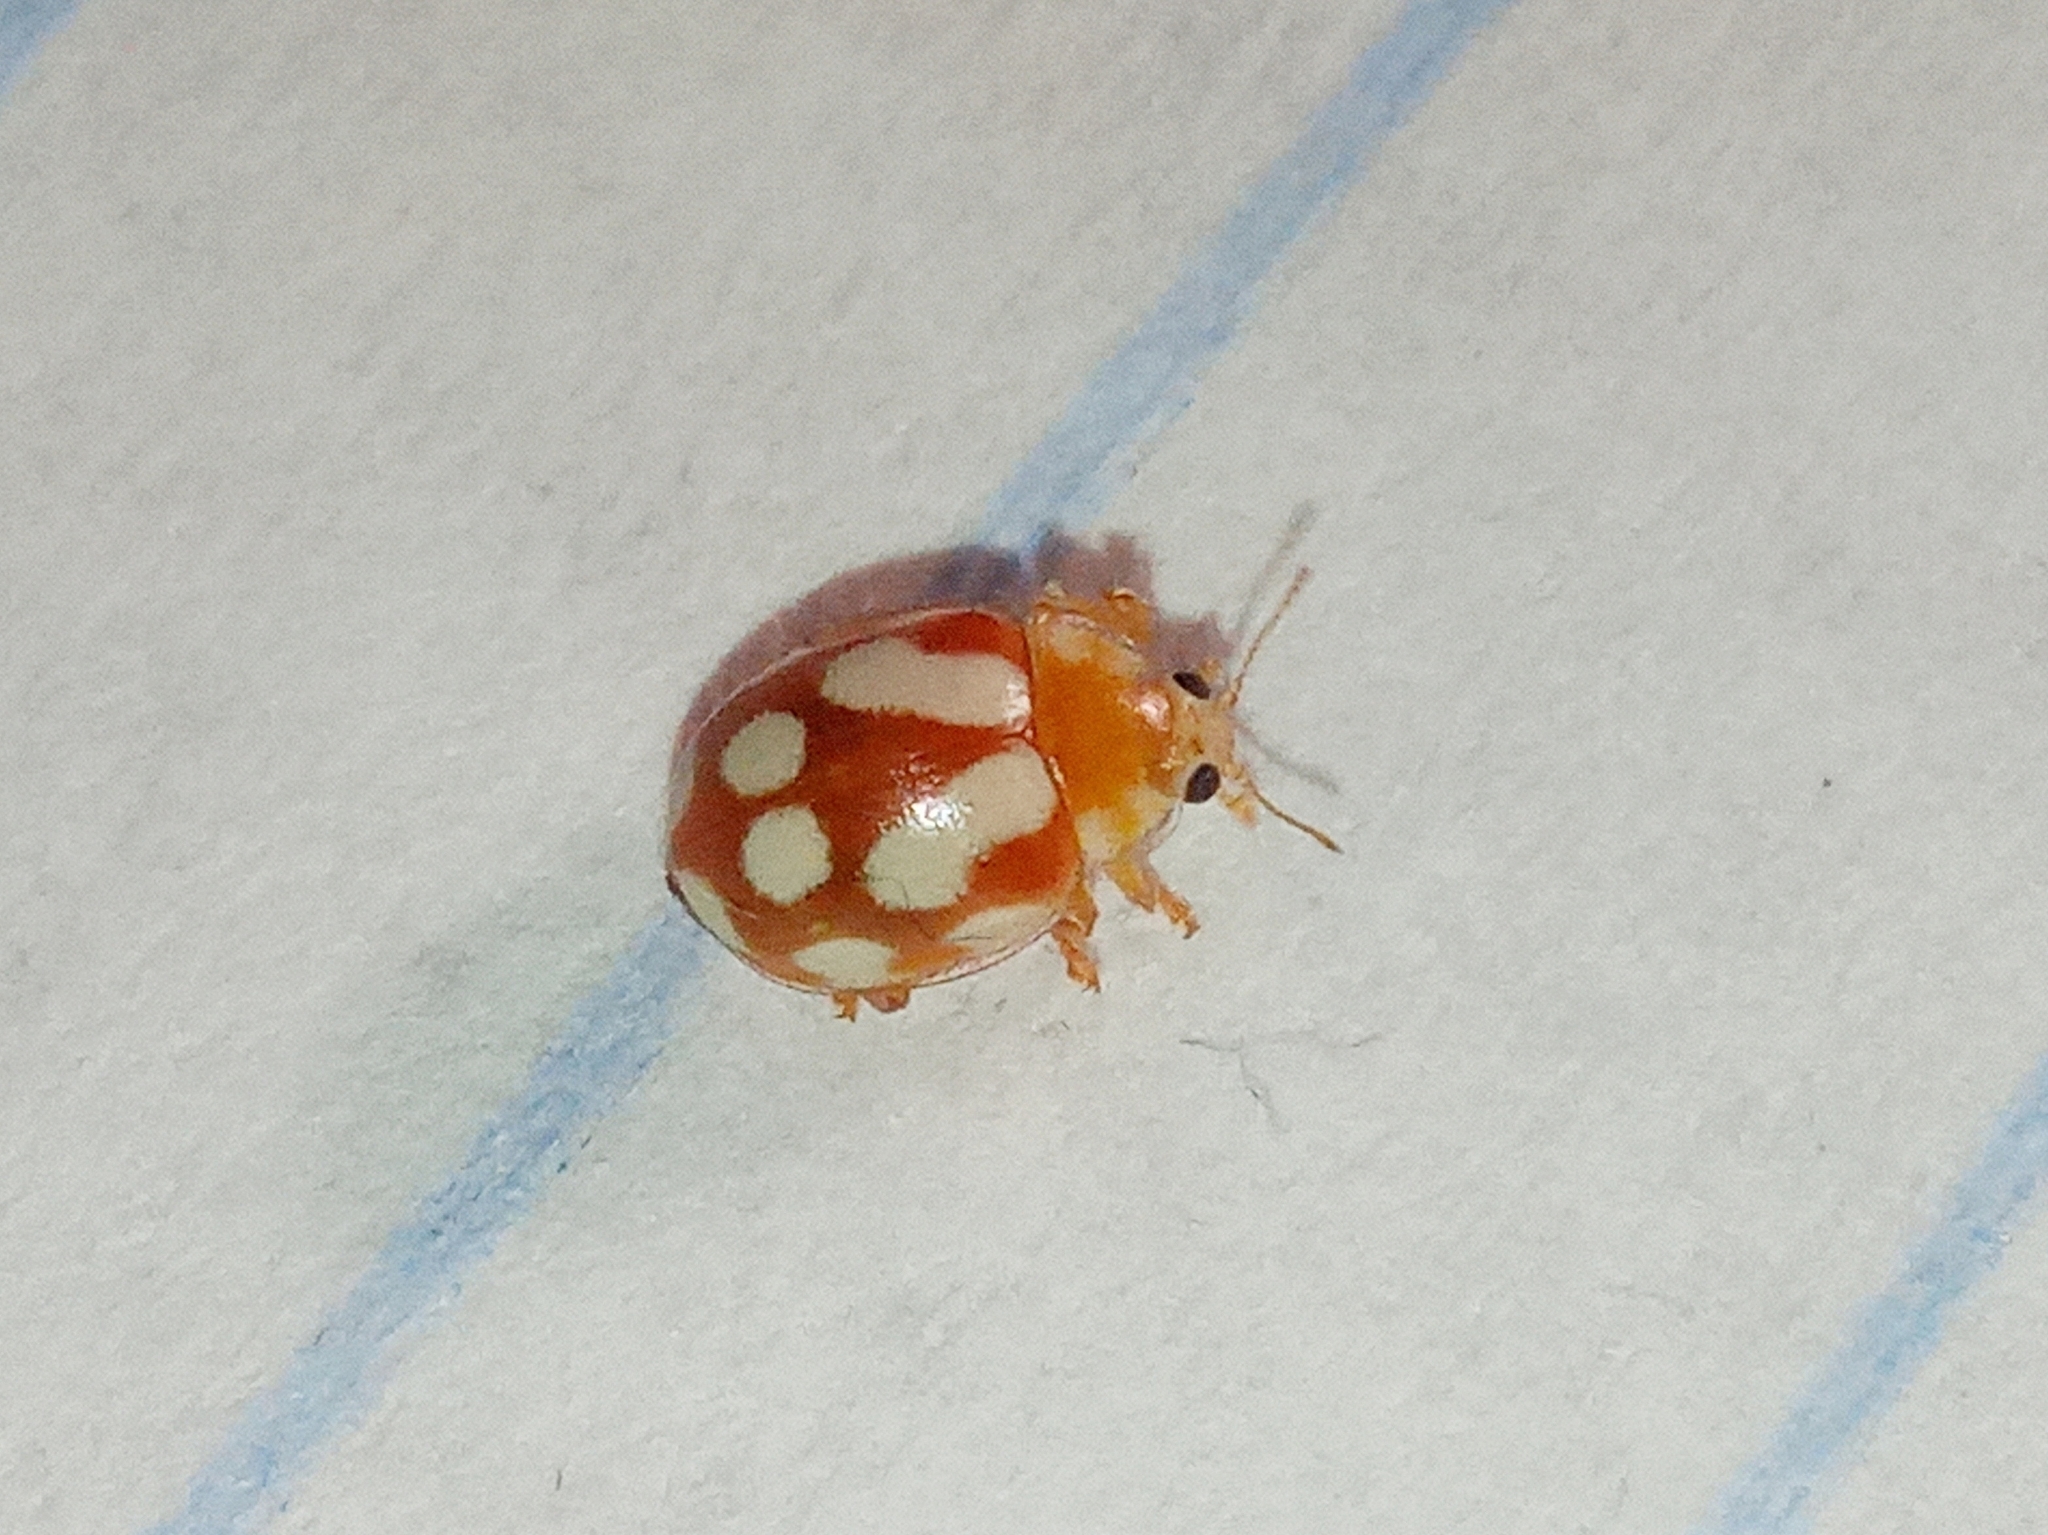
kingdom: Animalia
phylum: Arthropoda
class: Insecta
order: Coleoptera
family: Coccinellidae
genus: Vibidia
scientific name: Vibidia duodecimguttata
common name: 12-spot ladybird
